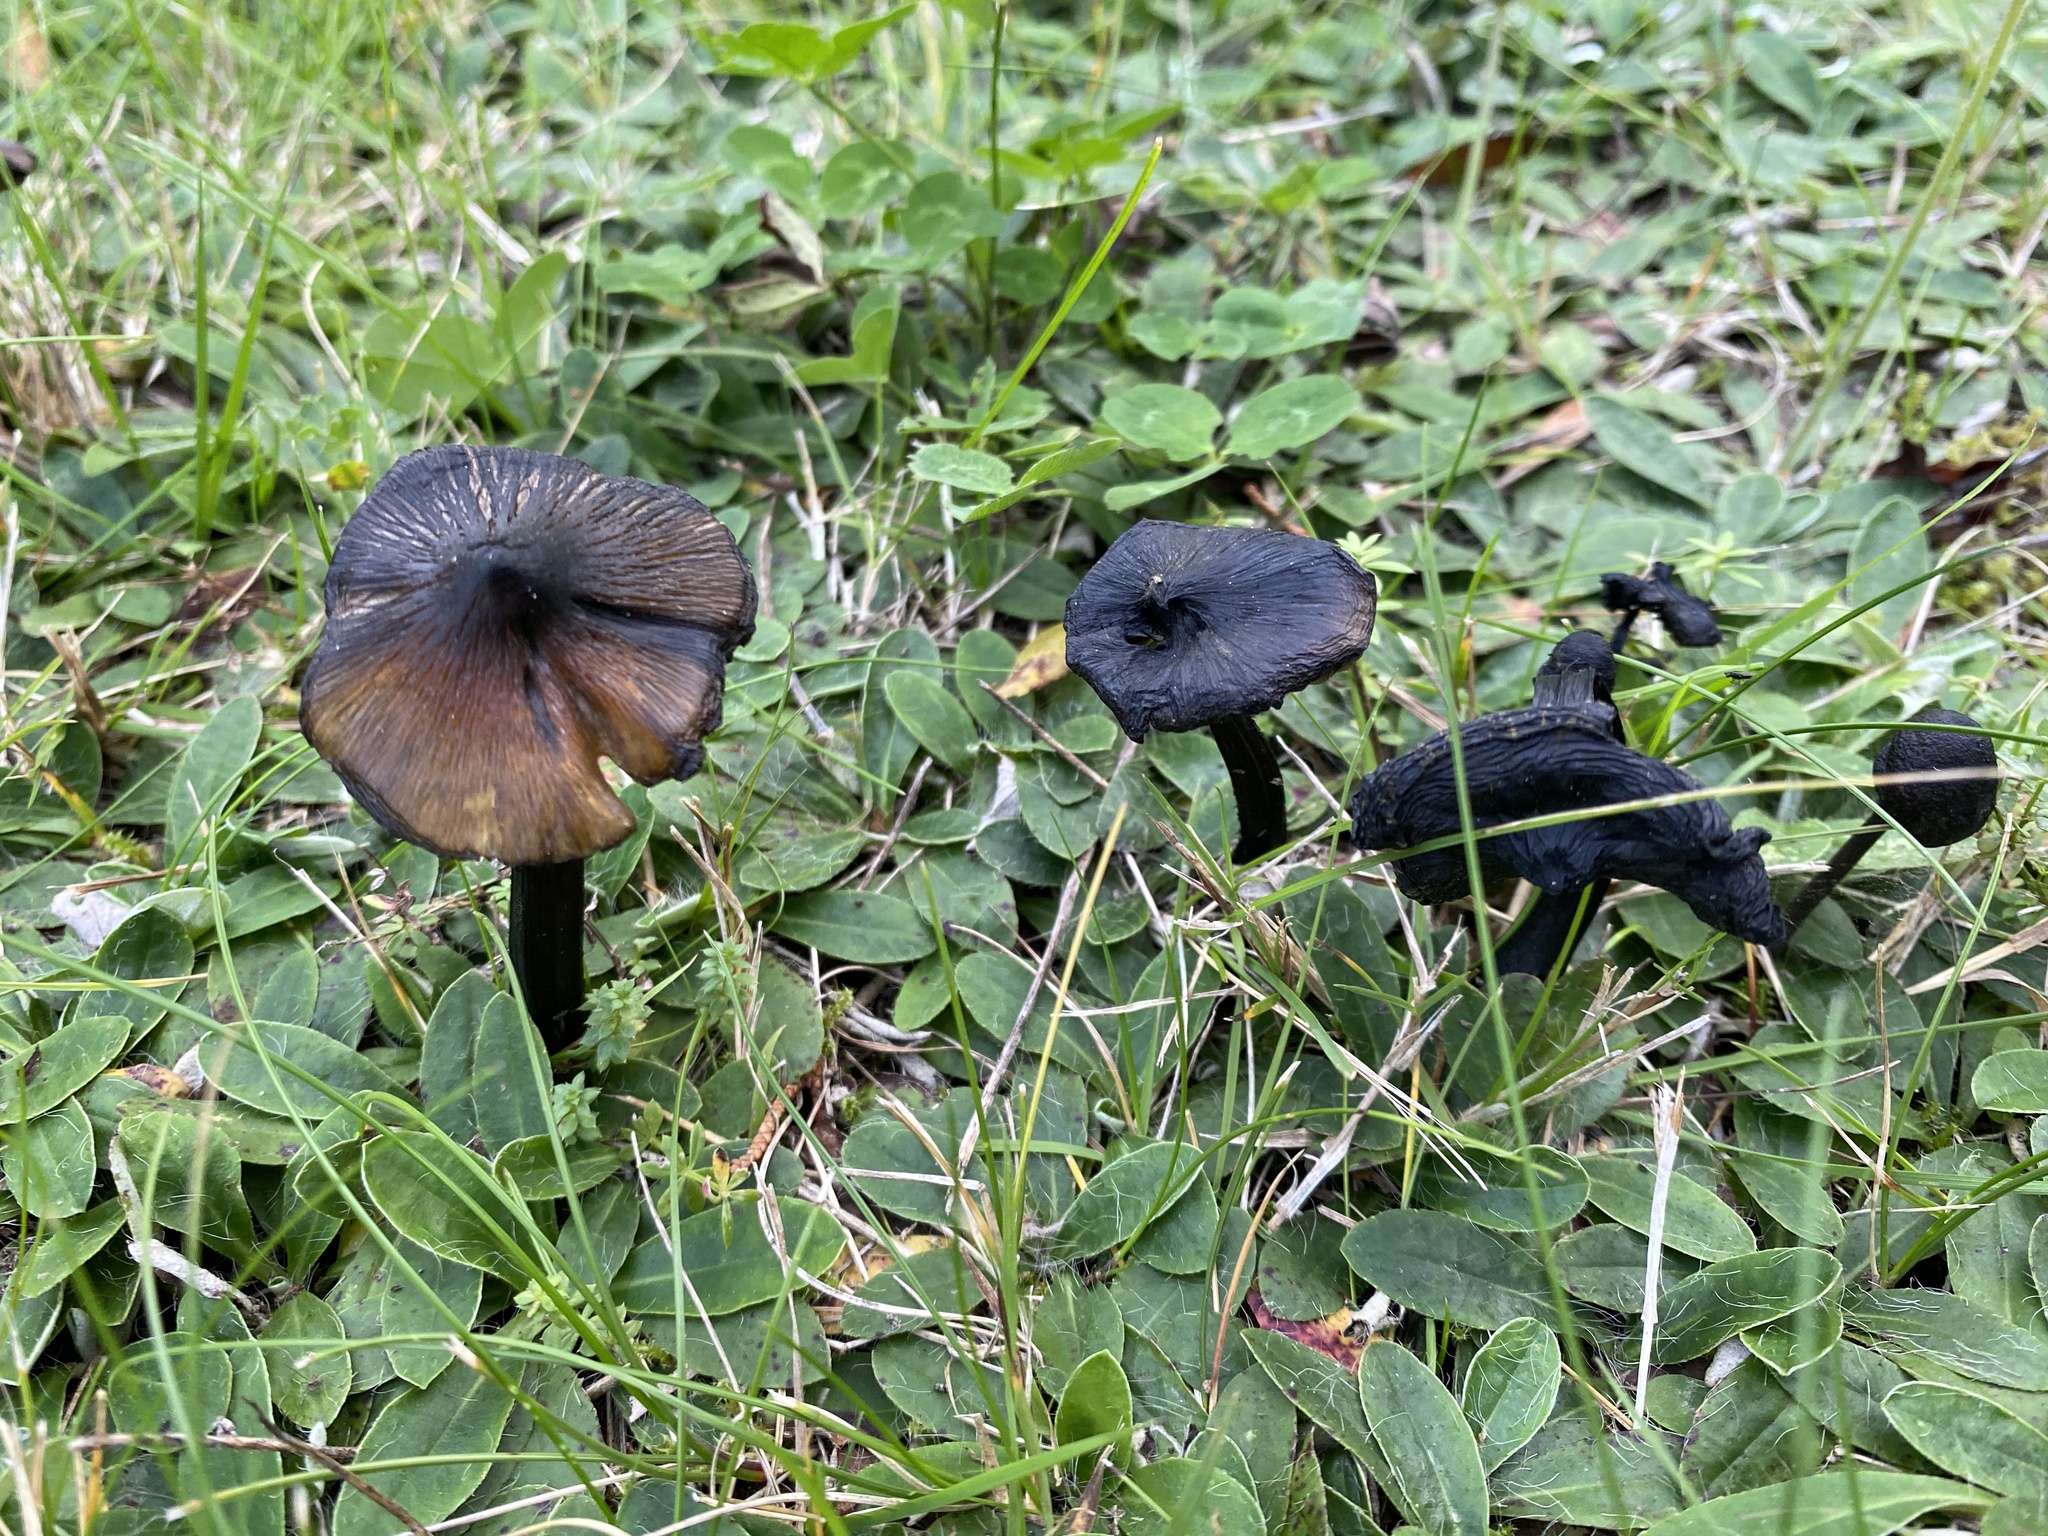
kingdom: Fungi
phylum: Basidiomycota
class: Agaricomycetes
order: Agaricales
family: Hygrophoraceae
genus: Hygrocybe
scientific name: Hygrocybe conica
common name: Blackening wax-cap
